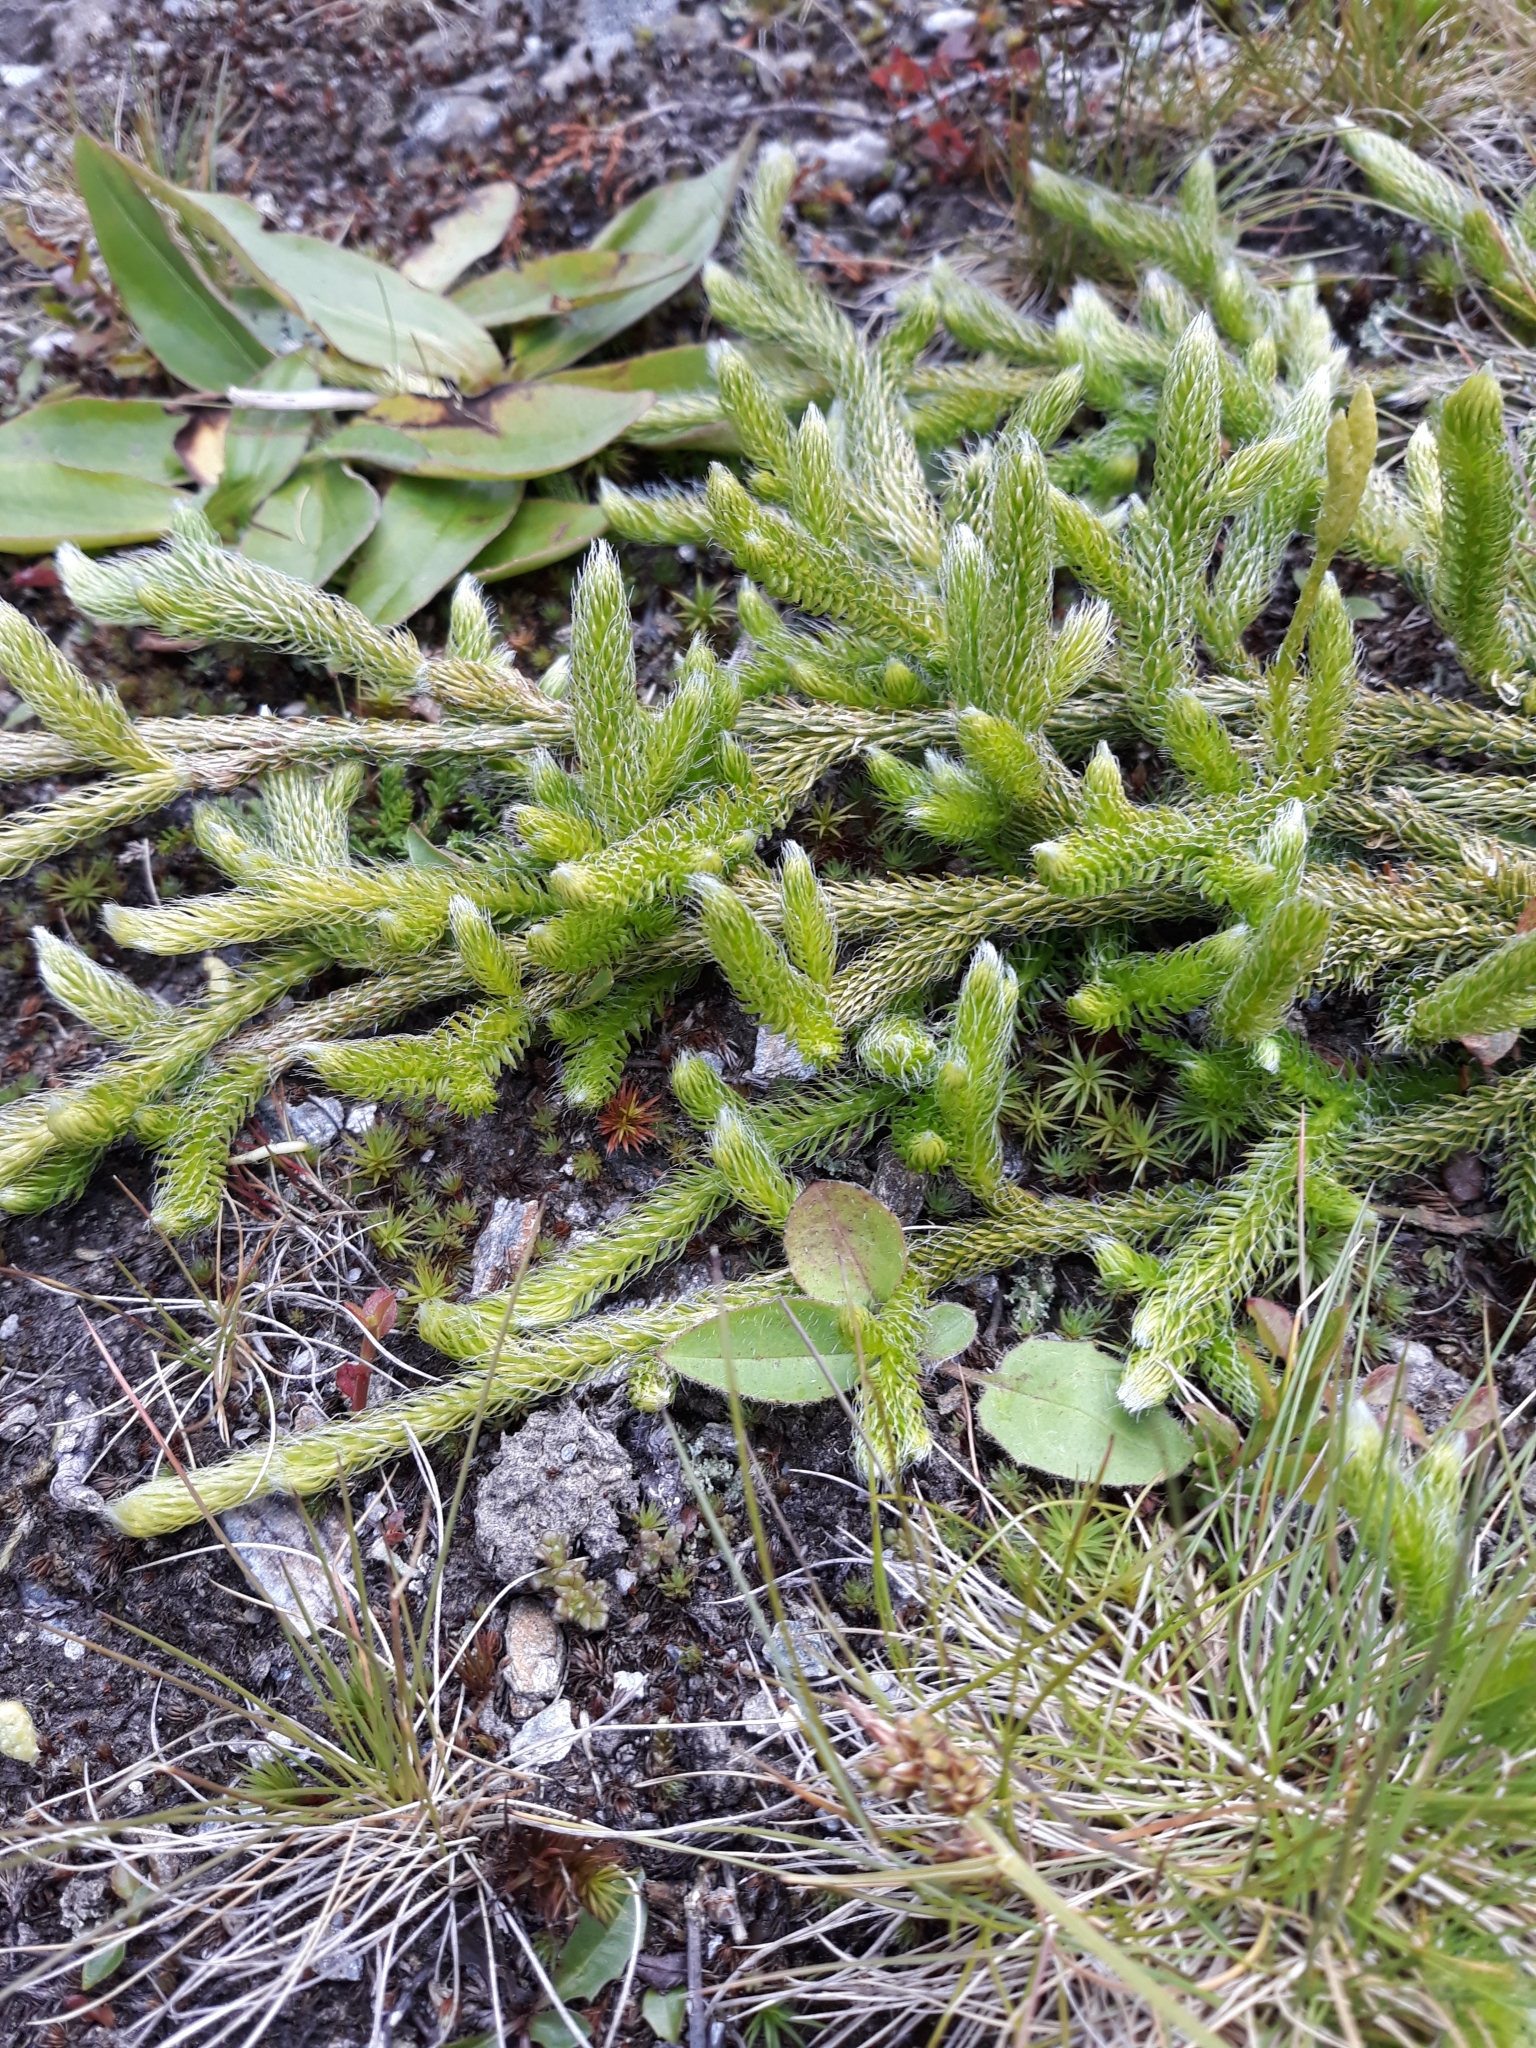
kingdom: Plantae
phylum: Tracheophyta
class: Lycopodiopsida
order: Lycopodiales
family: Lycopodiaceae
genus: Lycopodium
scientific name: Lycopodium clavatum
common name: Stag's-horn clubmoss
